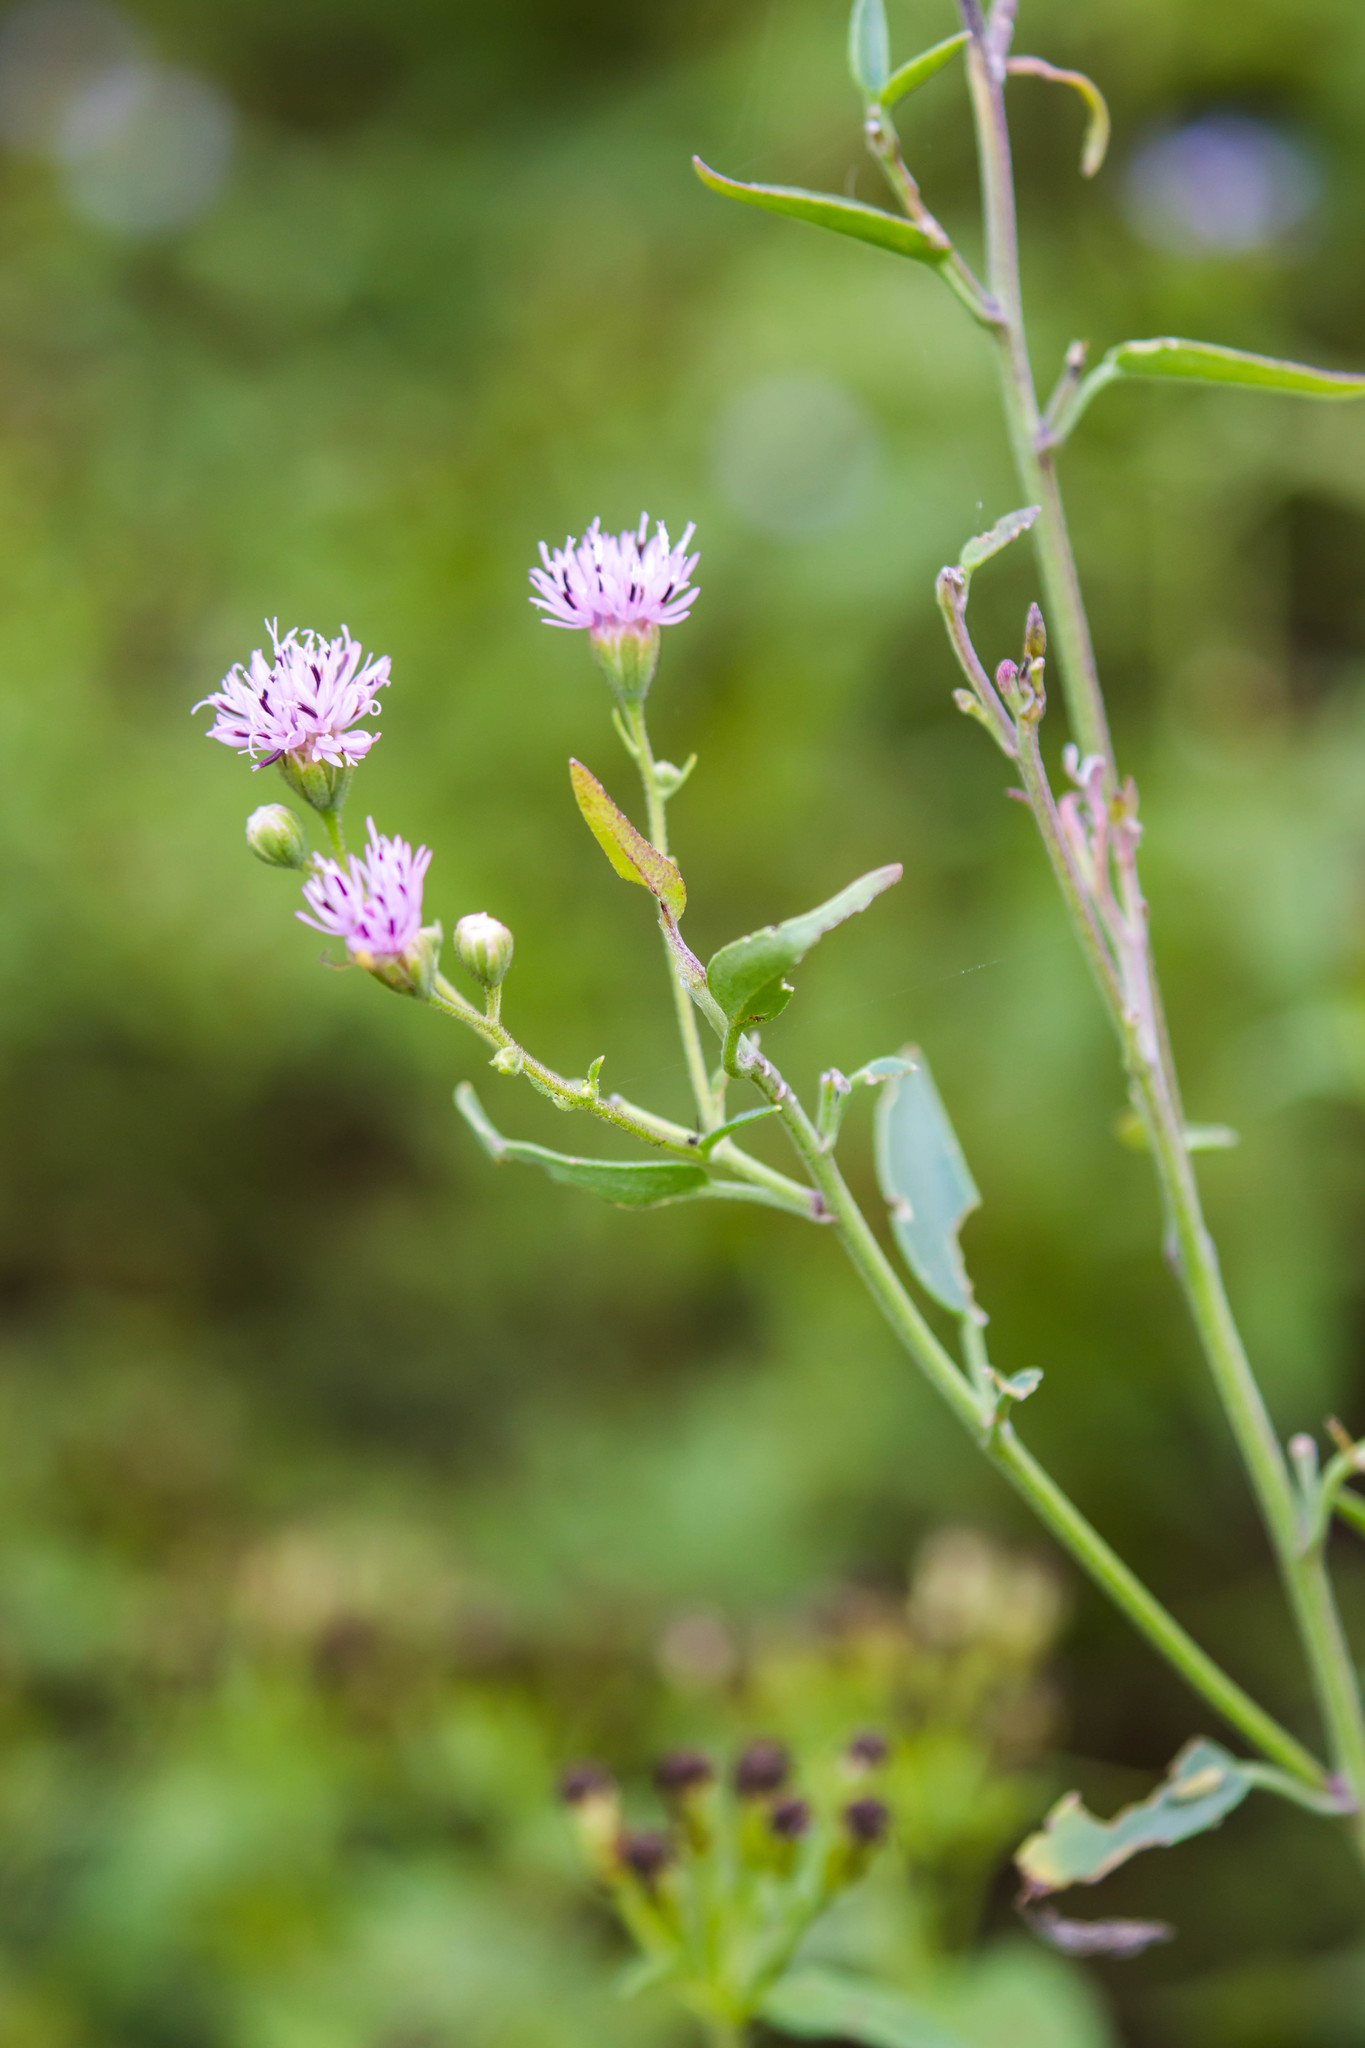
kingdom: Plantae
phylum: Tracheophyta
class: Magnoliopsida
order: Asterales
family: Asteraceae
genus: Palafoxia
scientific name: Palafoxia texana
